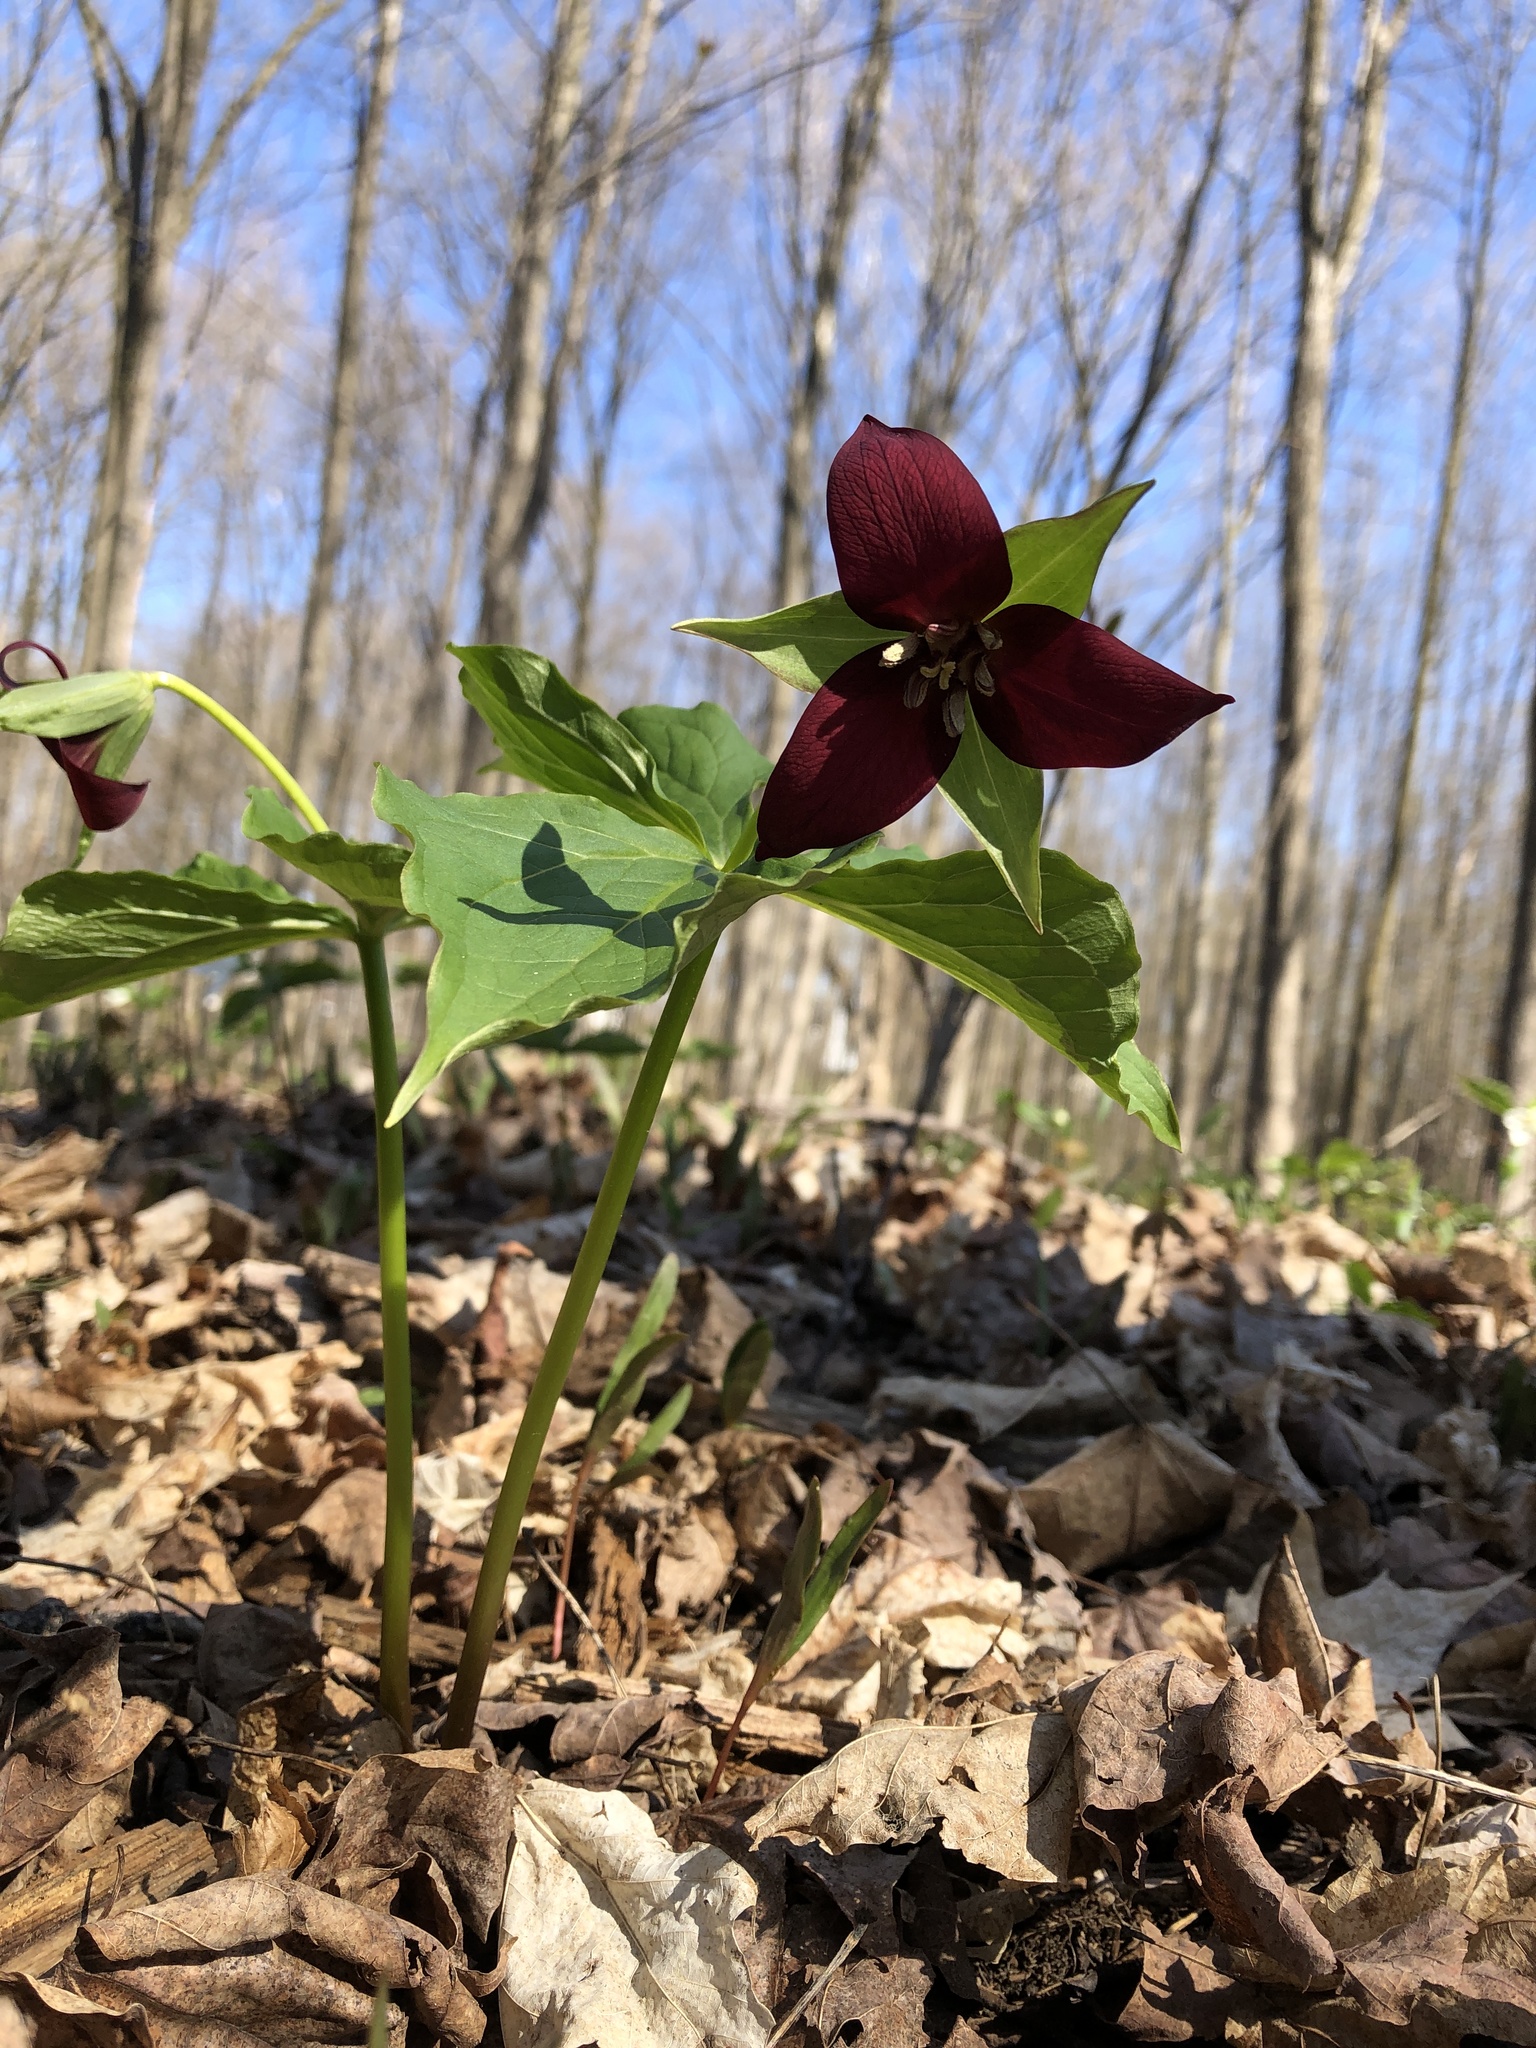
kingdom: Plantae
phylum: Tracheophyta
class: Liliopsida
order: Liliales
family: Melanthiaceae
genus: Trillium
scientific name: Trillium erectum
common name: Purple trillium
